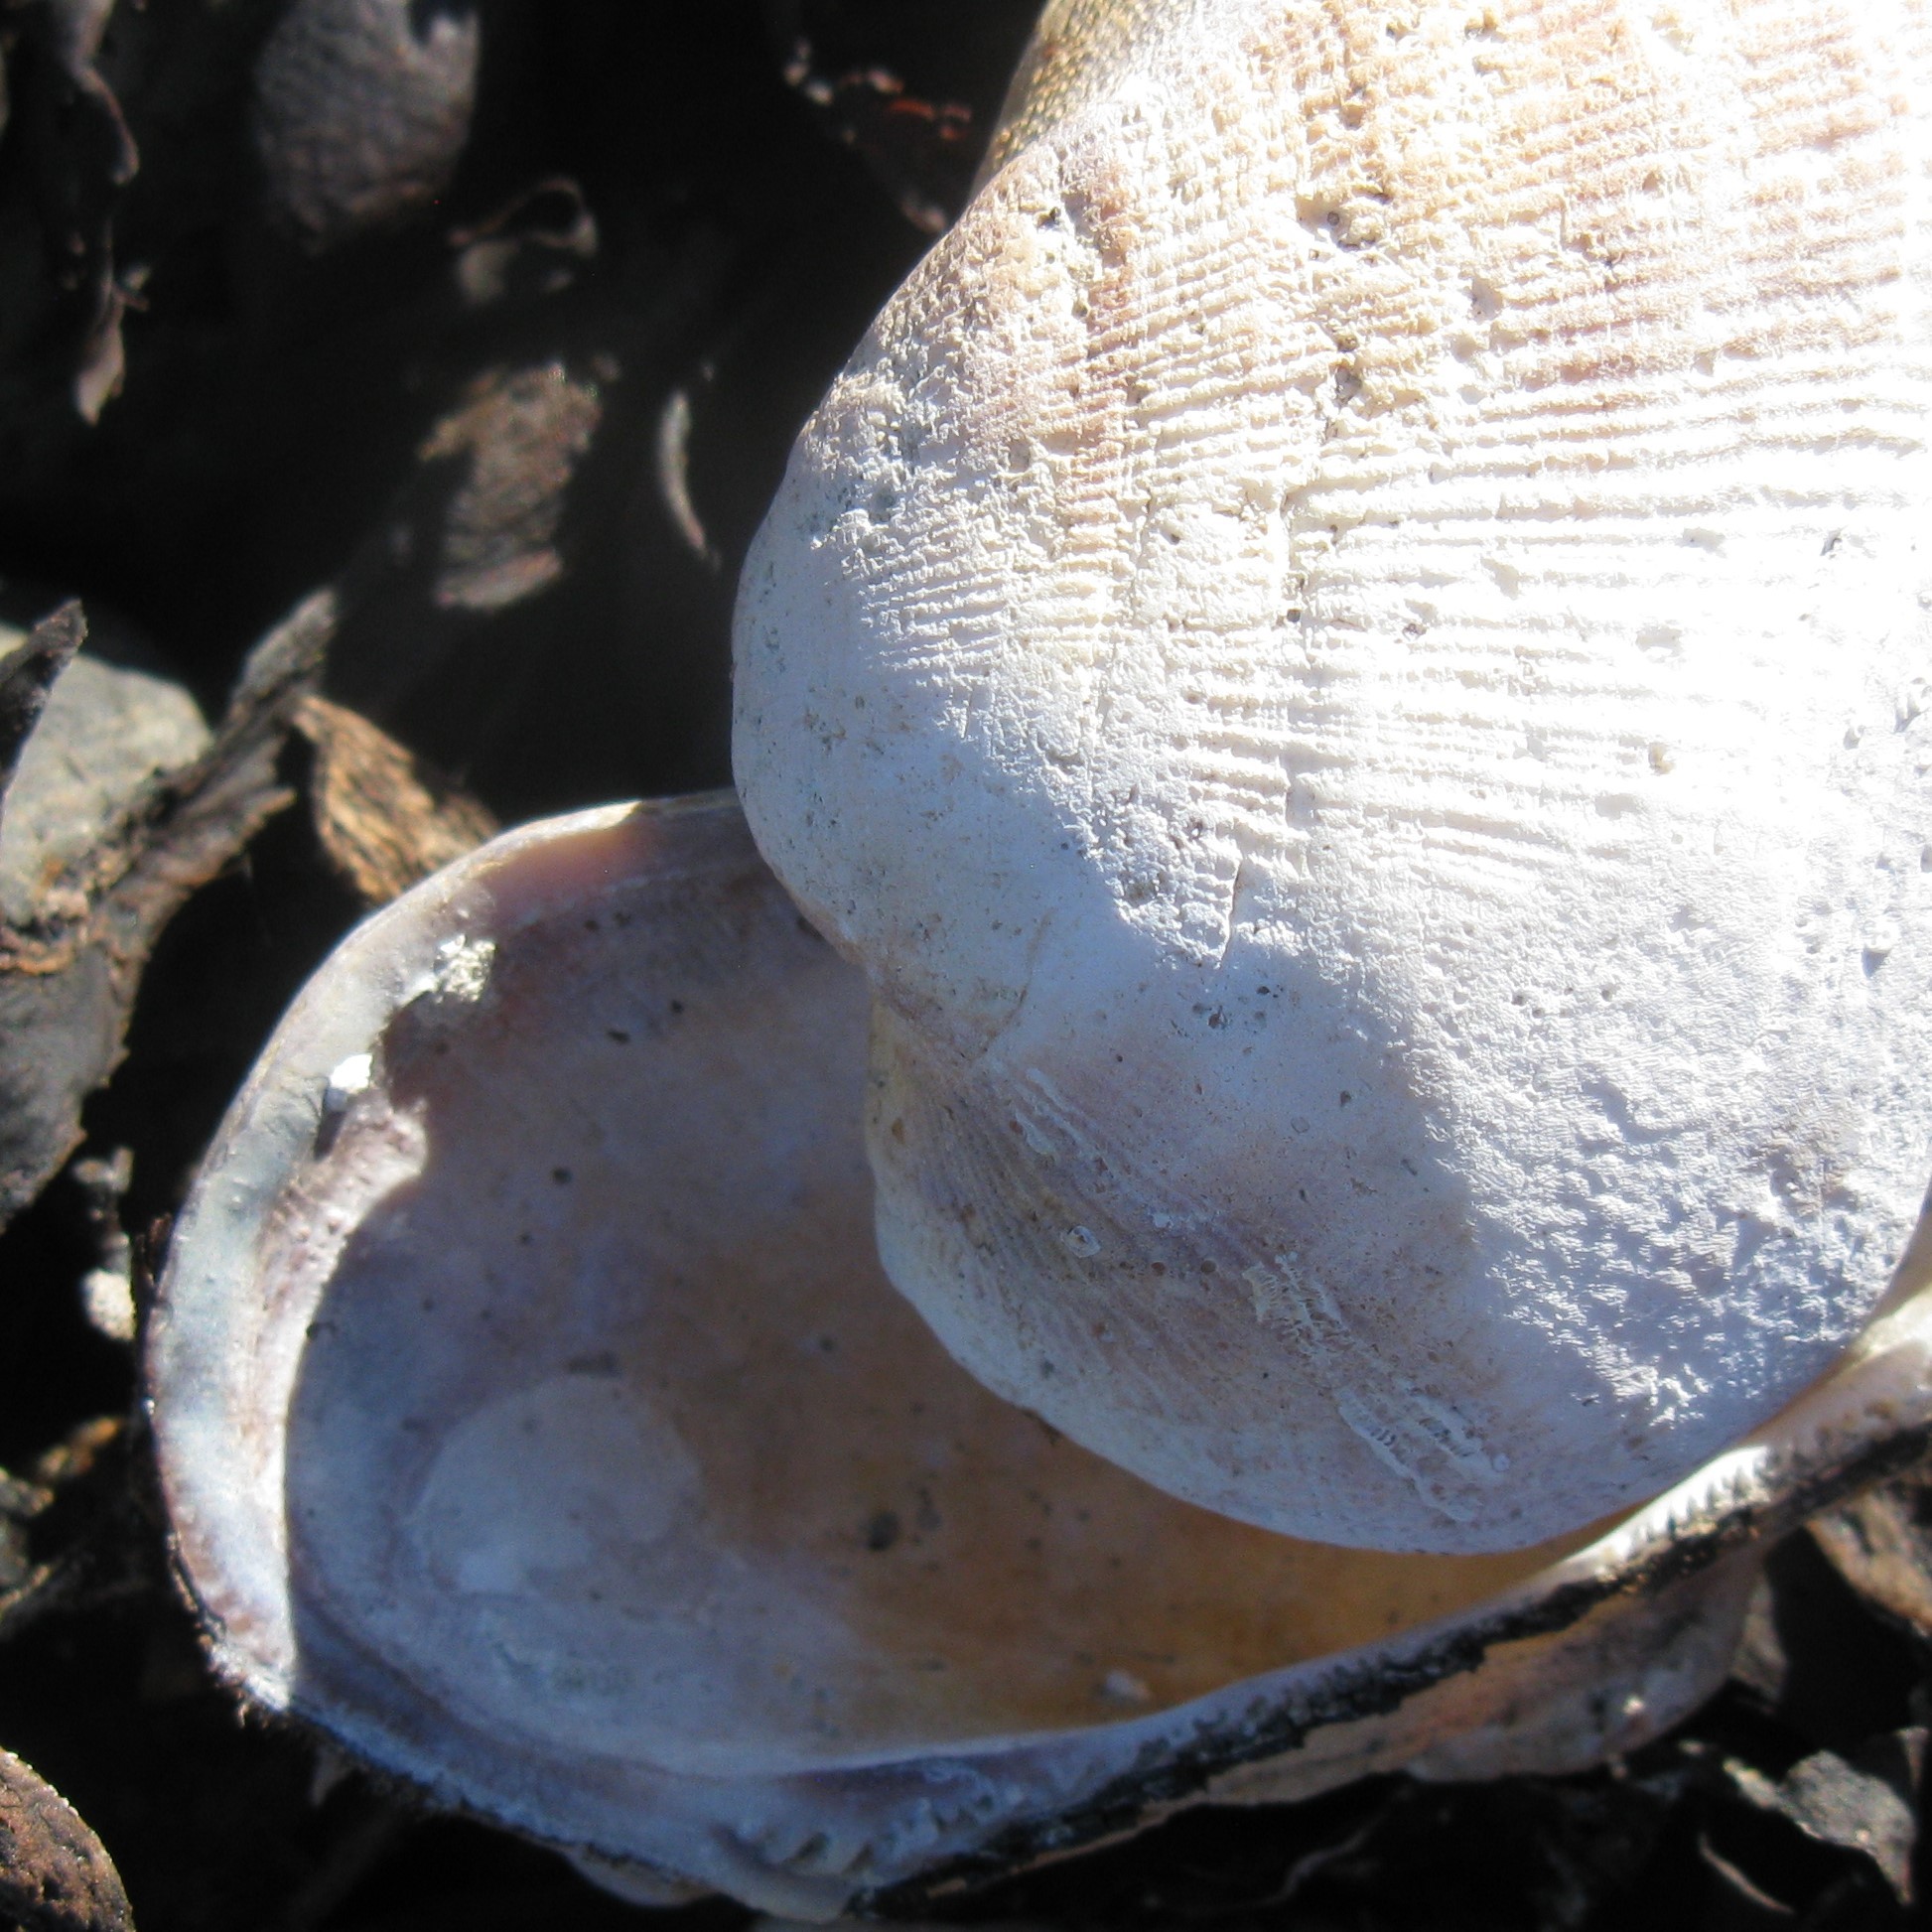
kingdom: Animalia
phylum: Mollusca
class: Bivalvia
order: Arcida
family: Arcidae
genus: Barbatia
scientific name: Barbatia novaezealandiae
